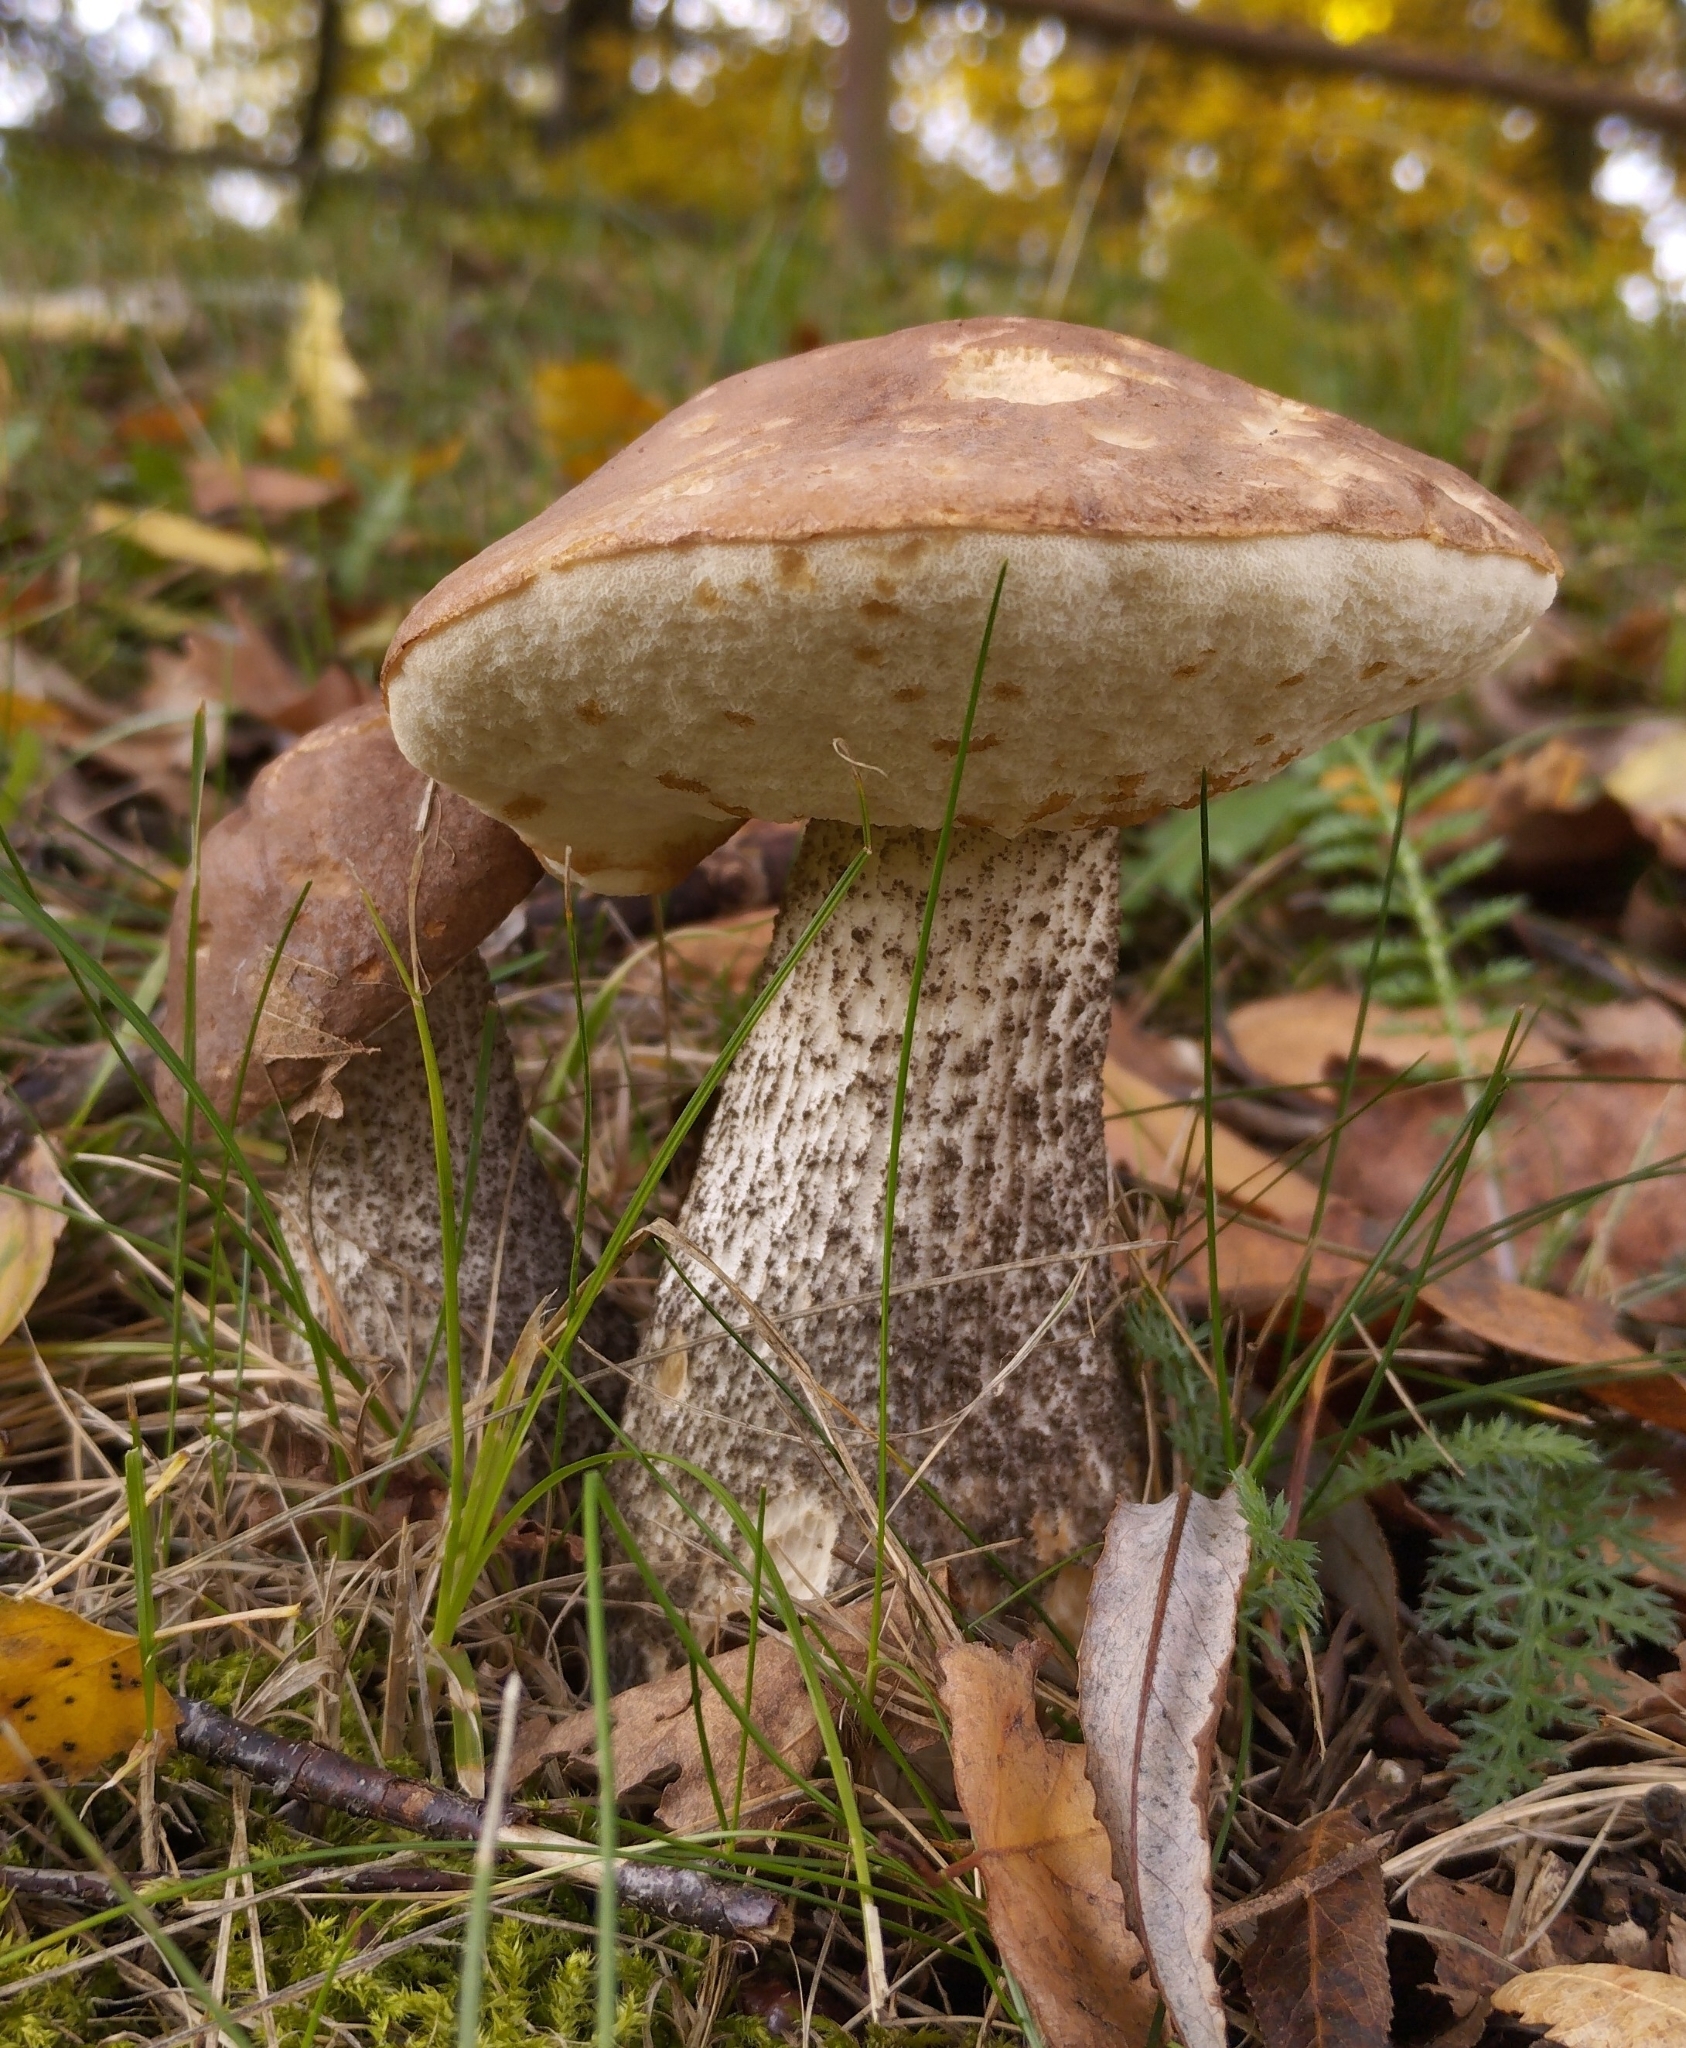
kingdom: Fungi
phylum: Basidiomycota
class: Agaricomycetes
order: Boletales
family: Boletaceae
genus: Leccinum
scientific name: Leccinum scabrum
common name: Blushing bolete
